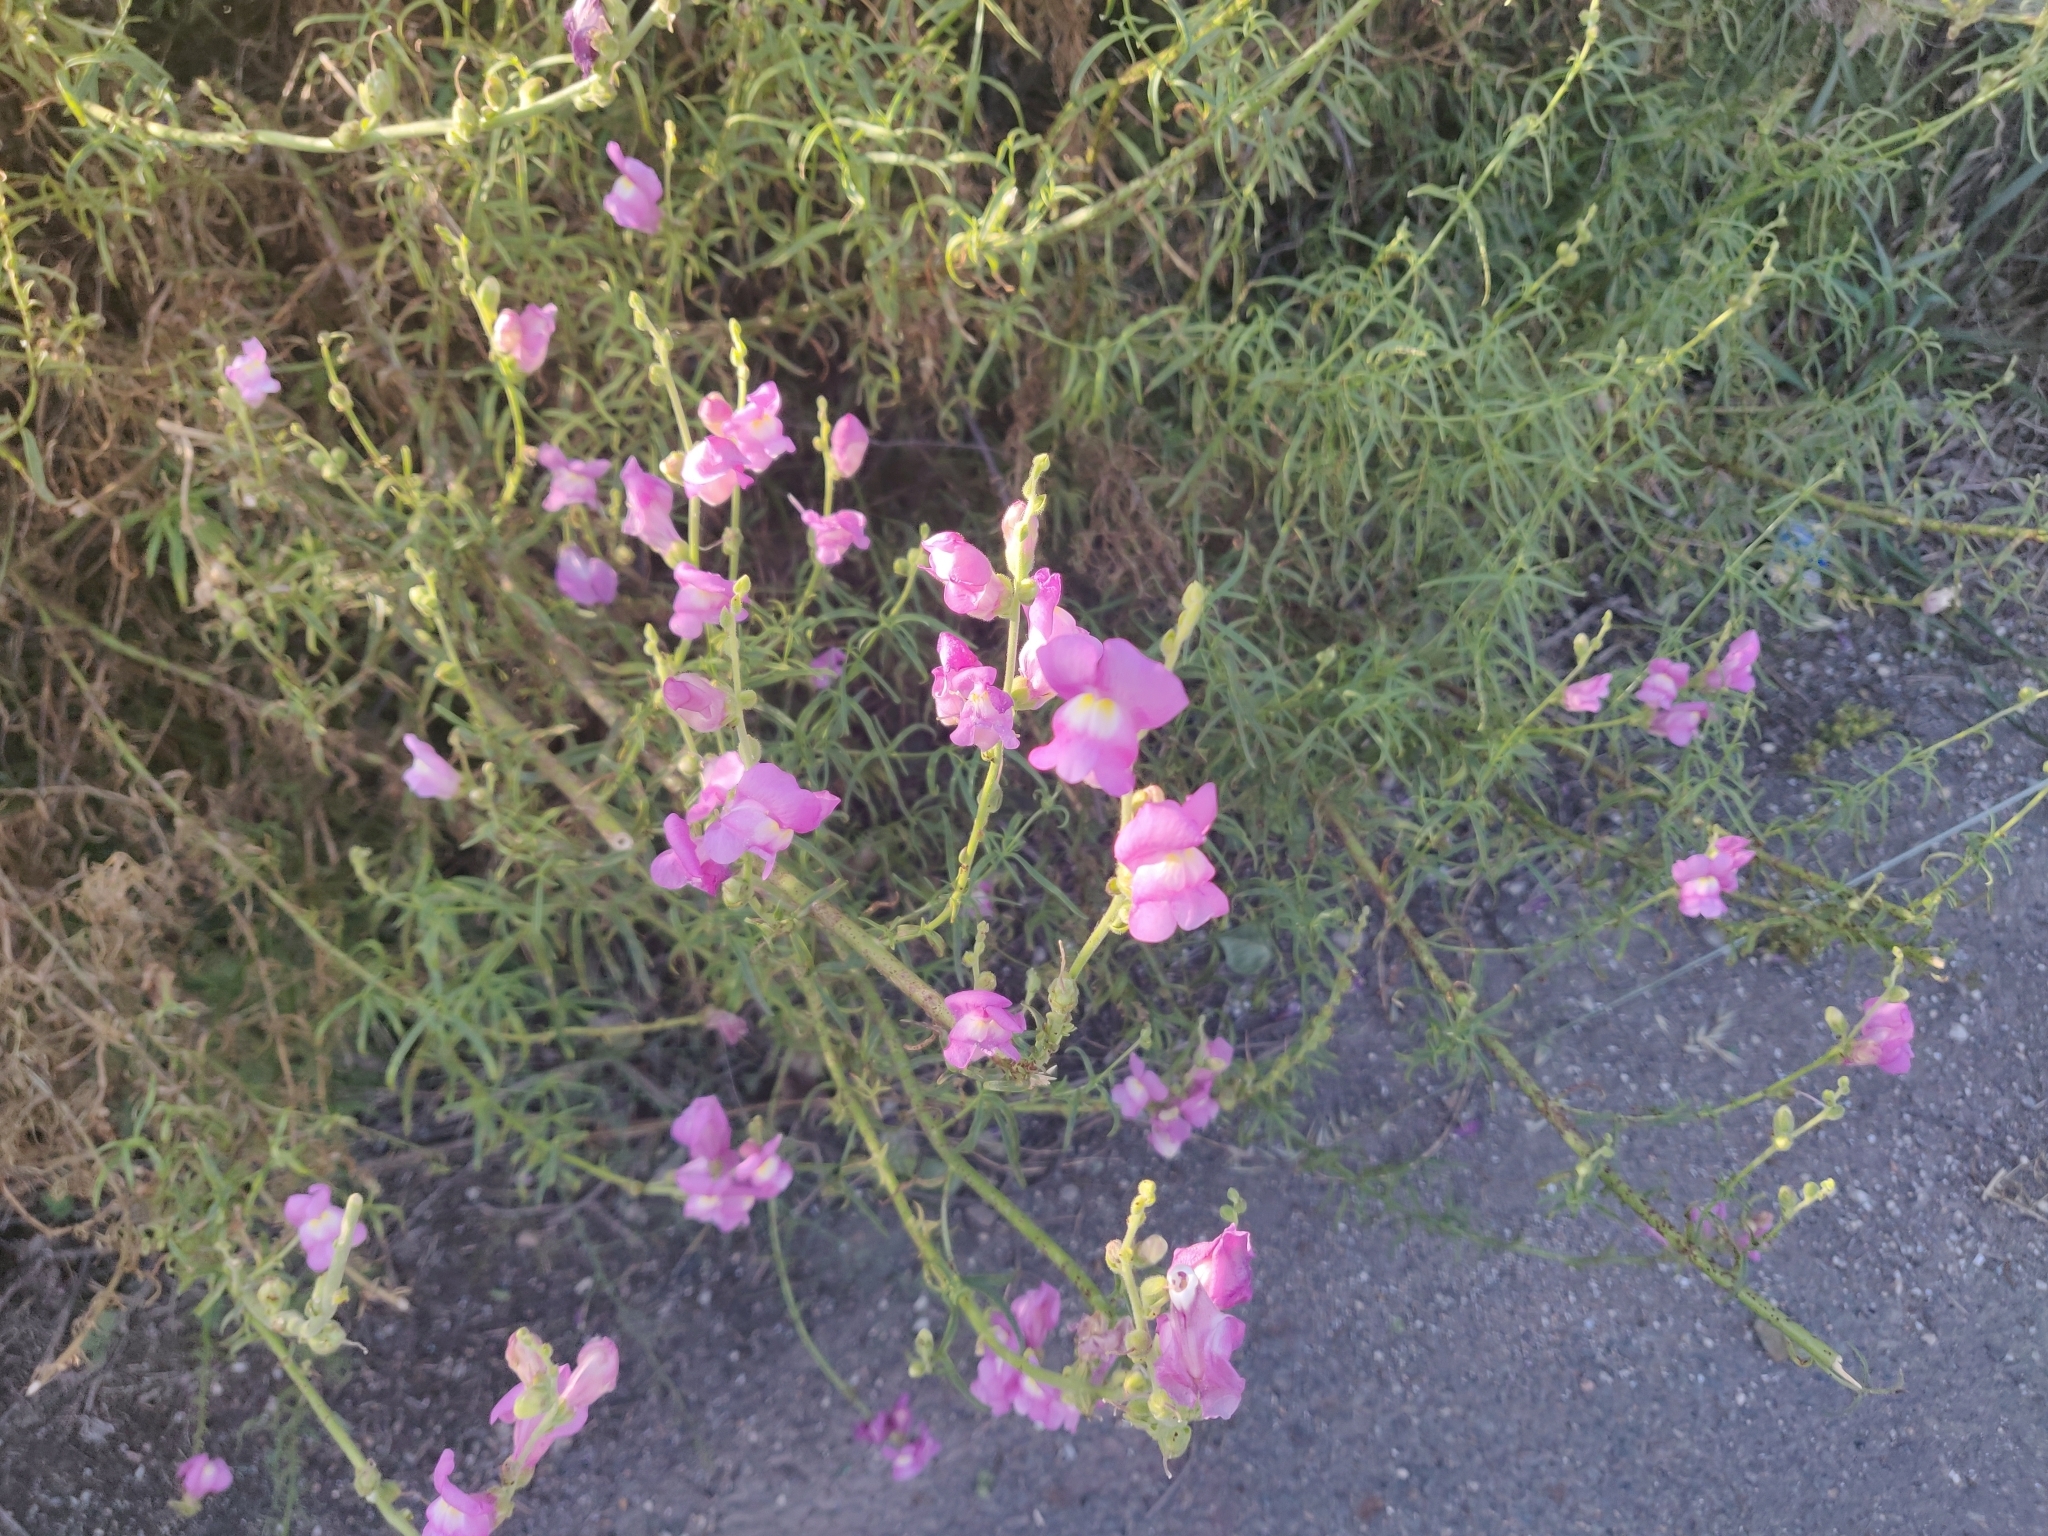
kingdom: Plantae
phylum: Tracheophyta
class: Magnoliopsida
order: Lamiales
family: Plantaginaceae
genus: Antirrhinum
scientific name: Antirrhinum tortuosum
